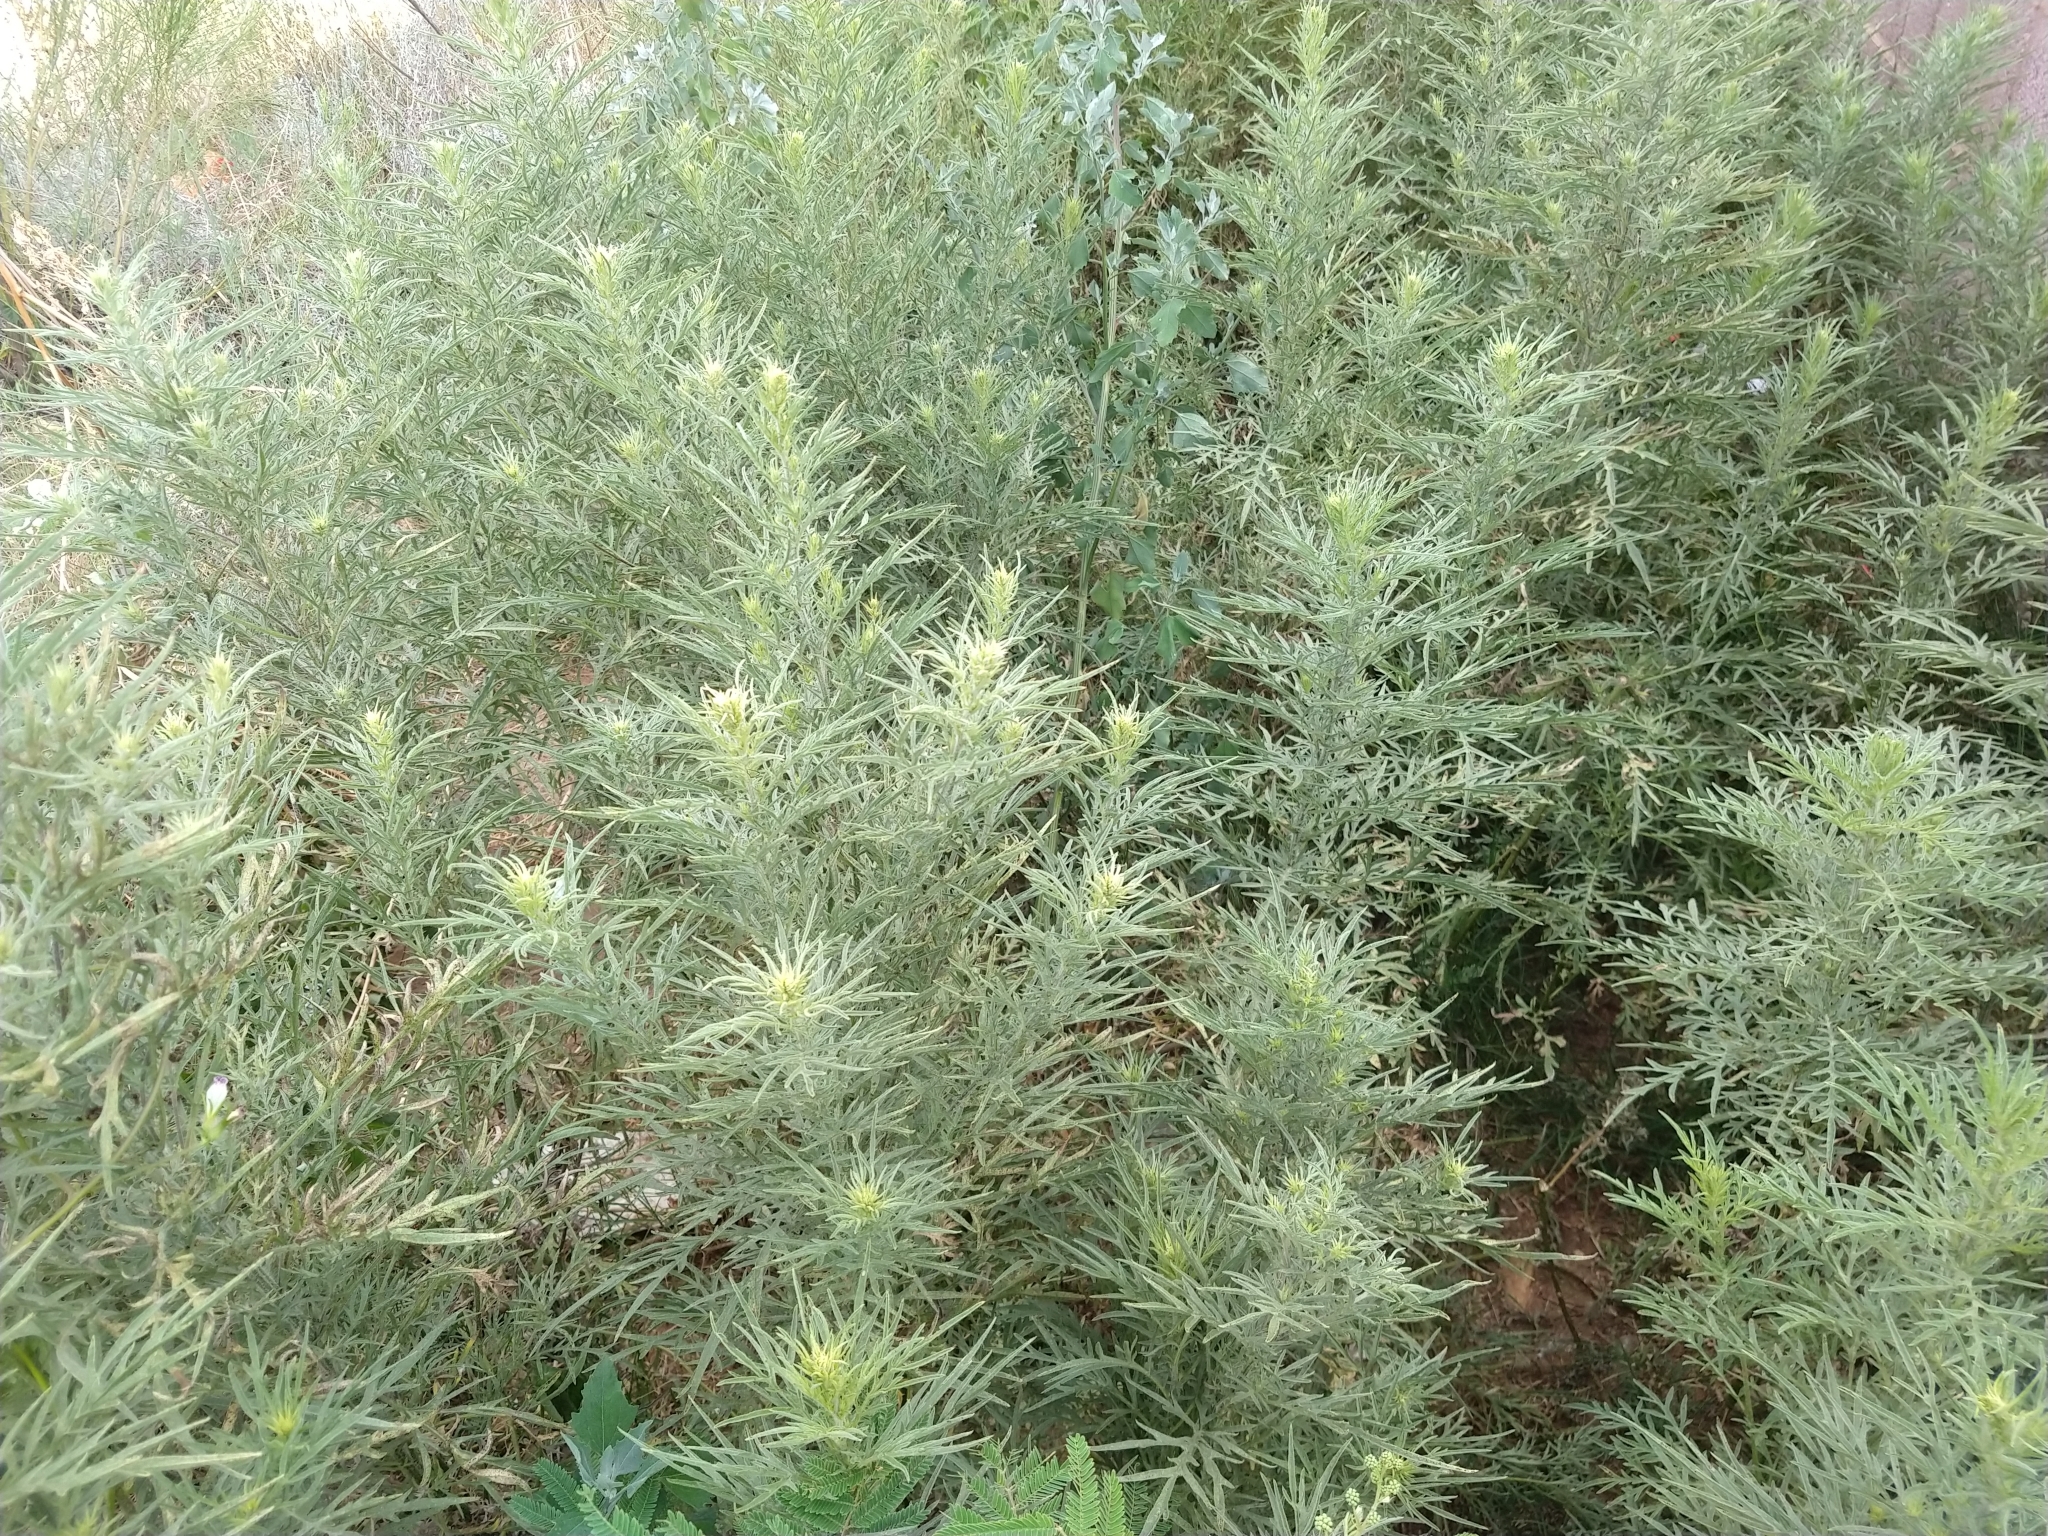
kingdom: Plantae
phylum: Tracheophyta
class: Magnoliopsida
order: Asterales
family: Asteraceae
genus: Ambrosia
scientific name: Ambrosia confertiflora
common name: Bur ragweed
